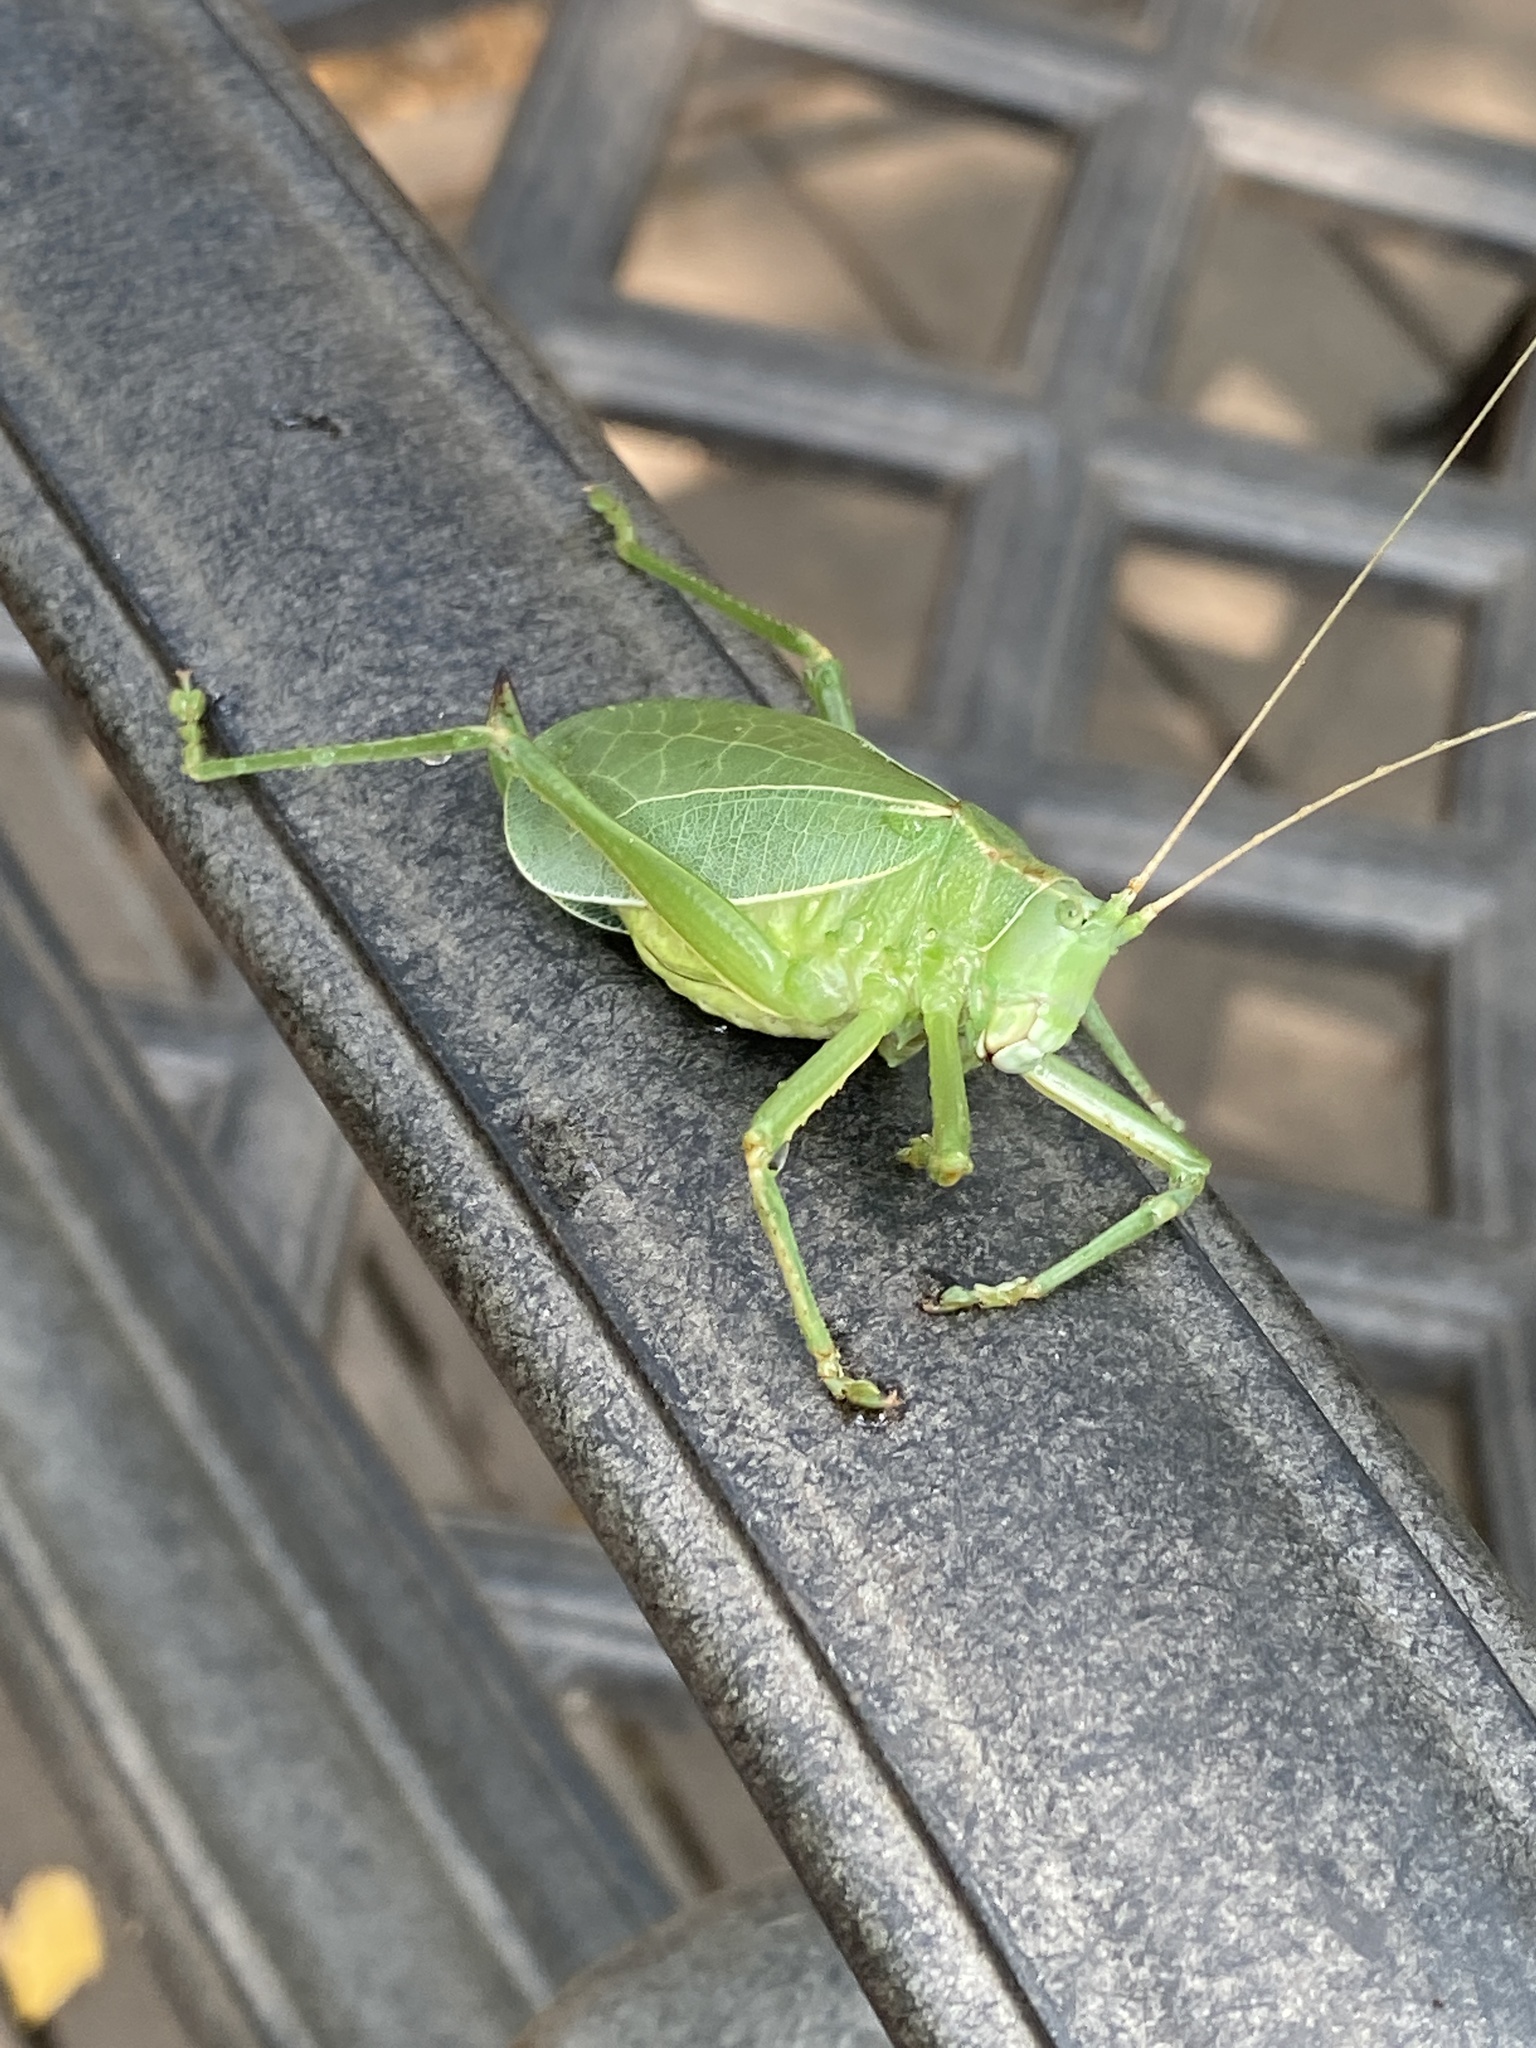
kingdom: Animalia
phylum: Arthropoda
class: Insecta
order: Orthoptera
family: Tettigoniidae
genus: Paracyrtophyllus
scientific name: Paracyrtophyllus robustus
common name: Central texas leaf katydid
